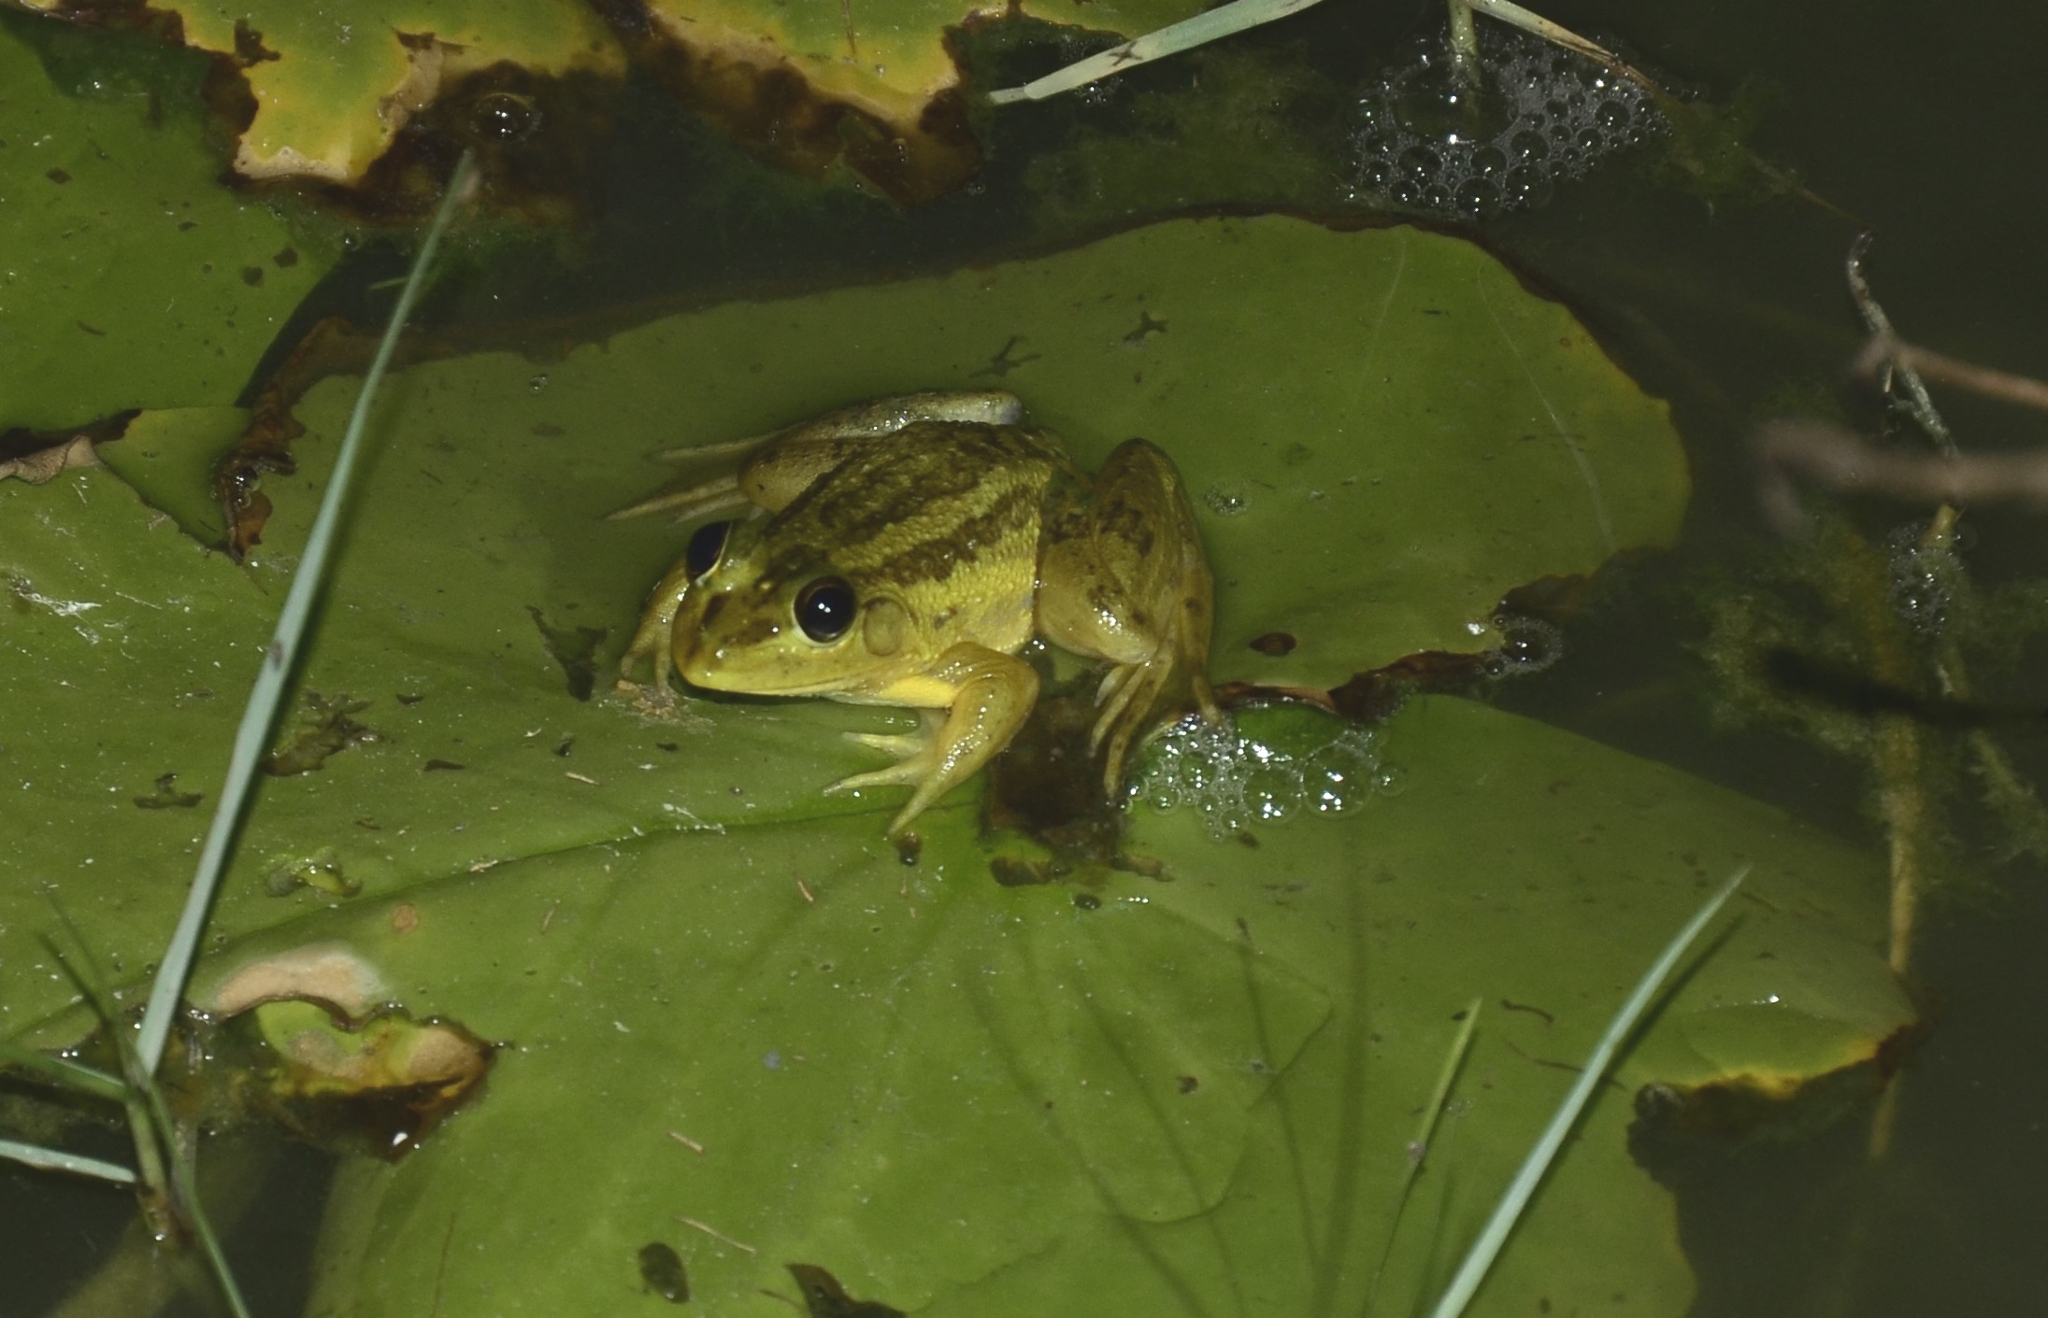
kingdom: Animalia
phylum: Chordata
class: Amphibia
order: Anura
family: Dicroglossidae
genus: Euphlyctis
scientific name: Euphlyctis karaavali
